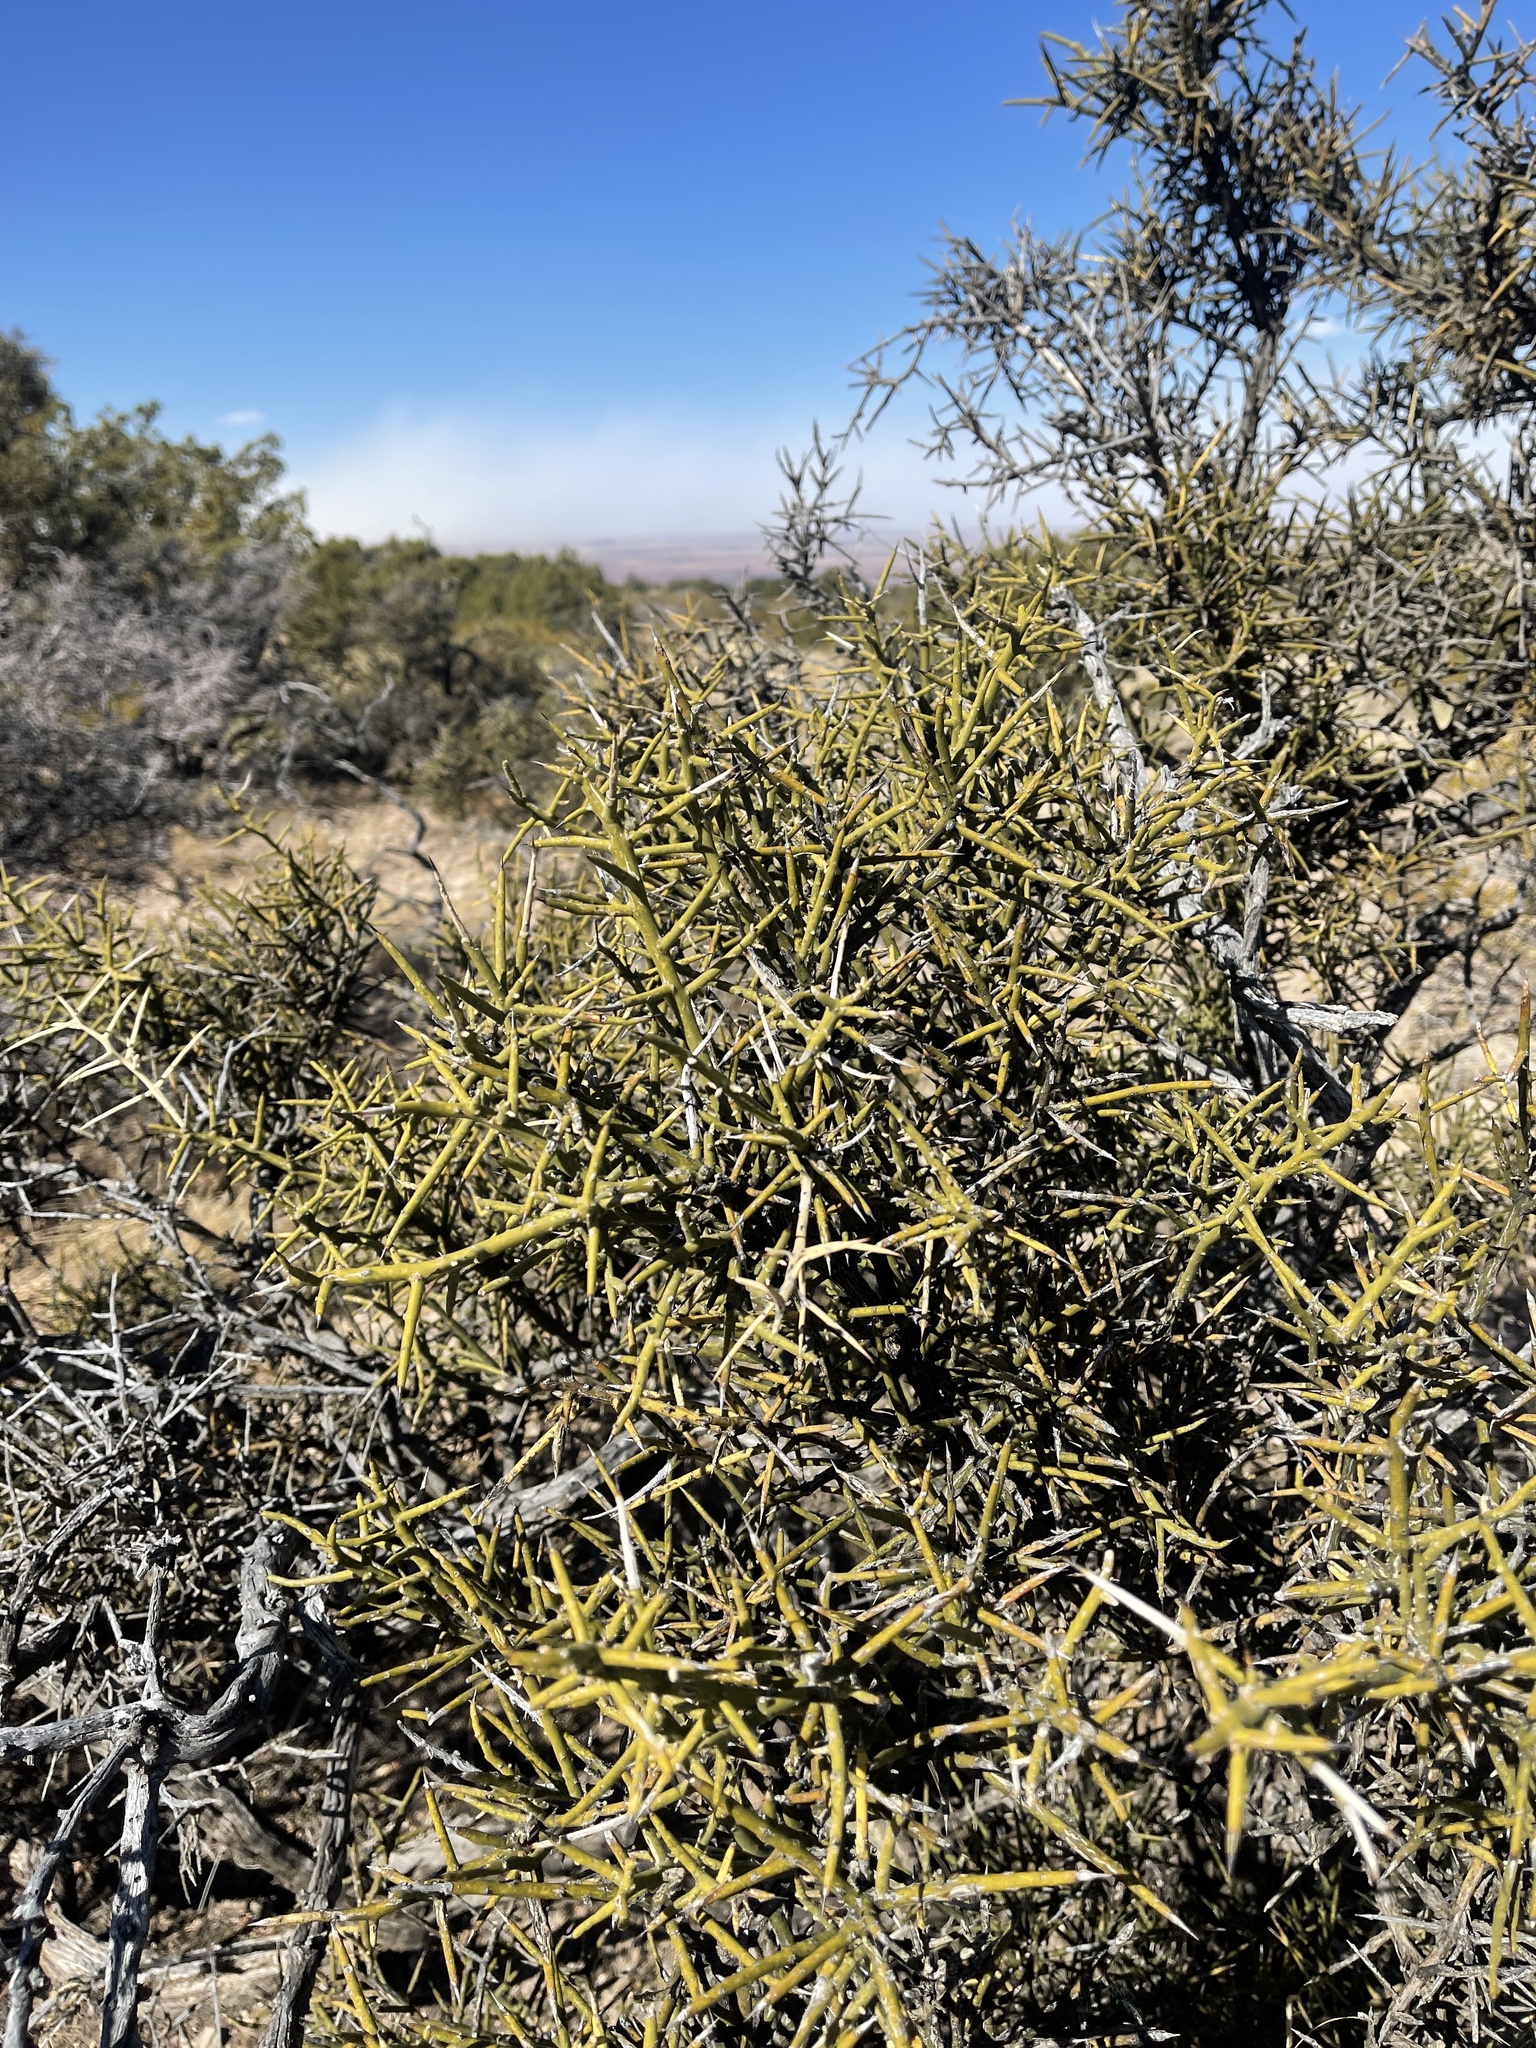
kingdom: Plantae
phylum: Tracheophyta
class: Magnoliopsida
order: Brassicales
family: Koeberliniaceae
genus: Koeberlinia
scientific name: Koeberlinia spinosa
